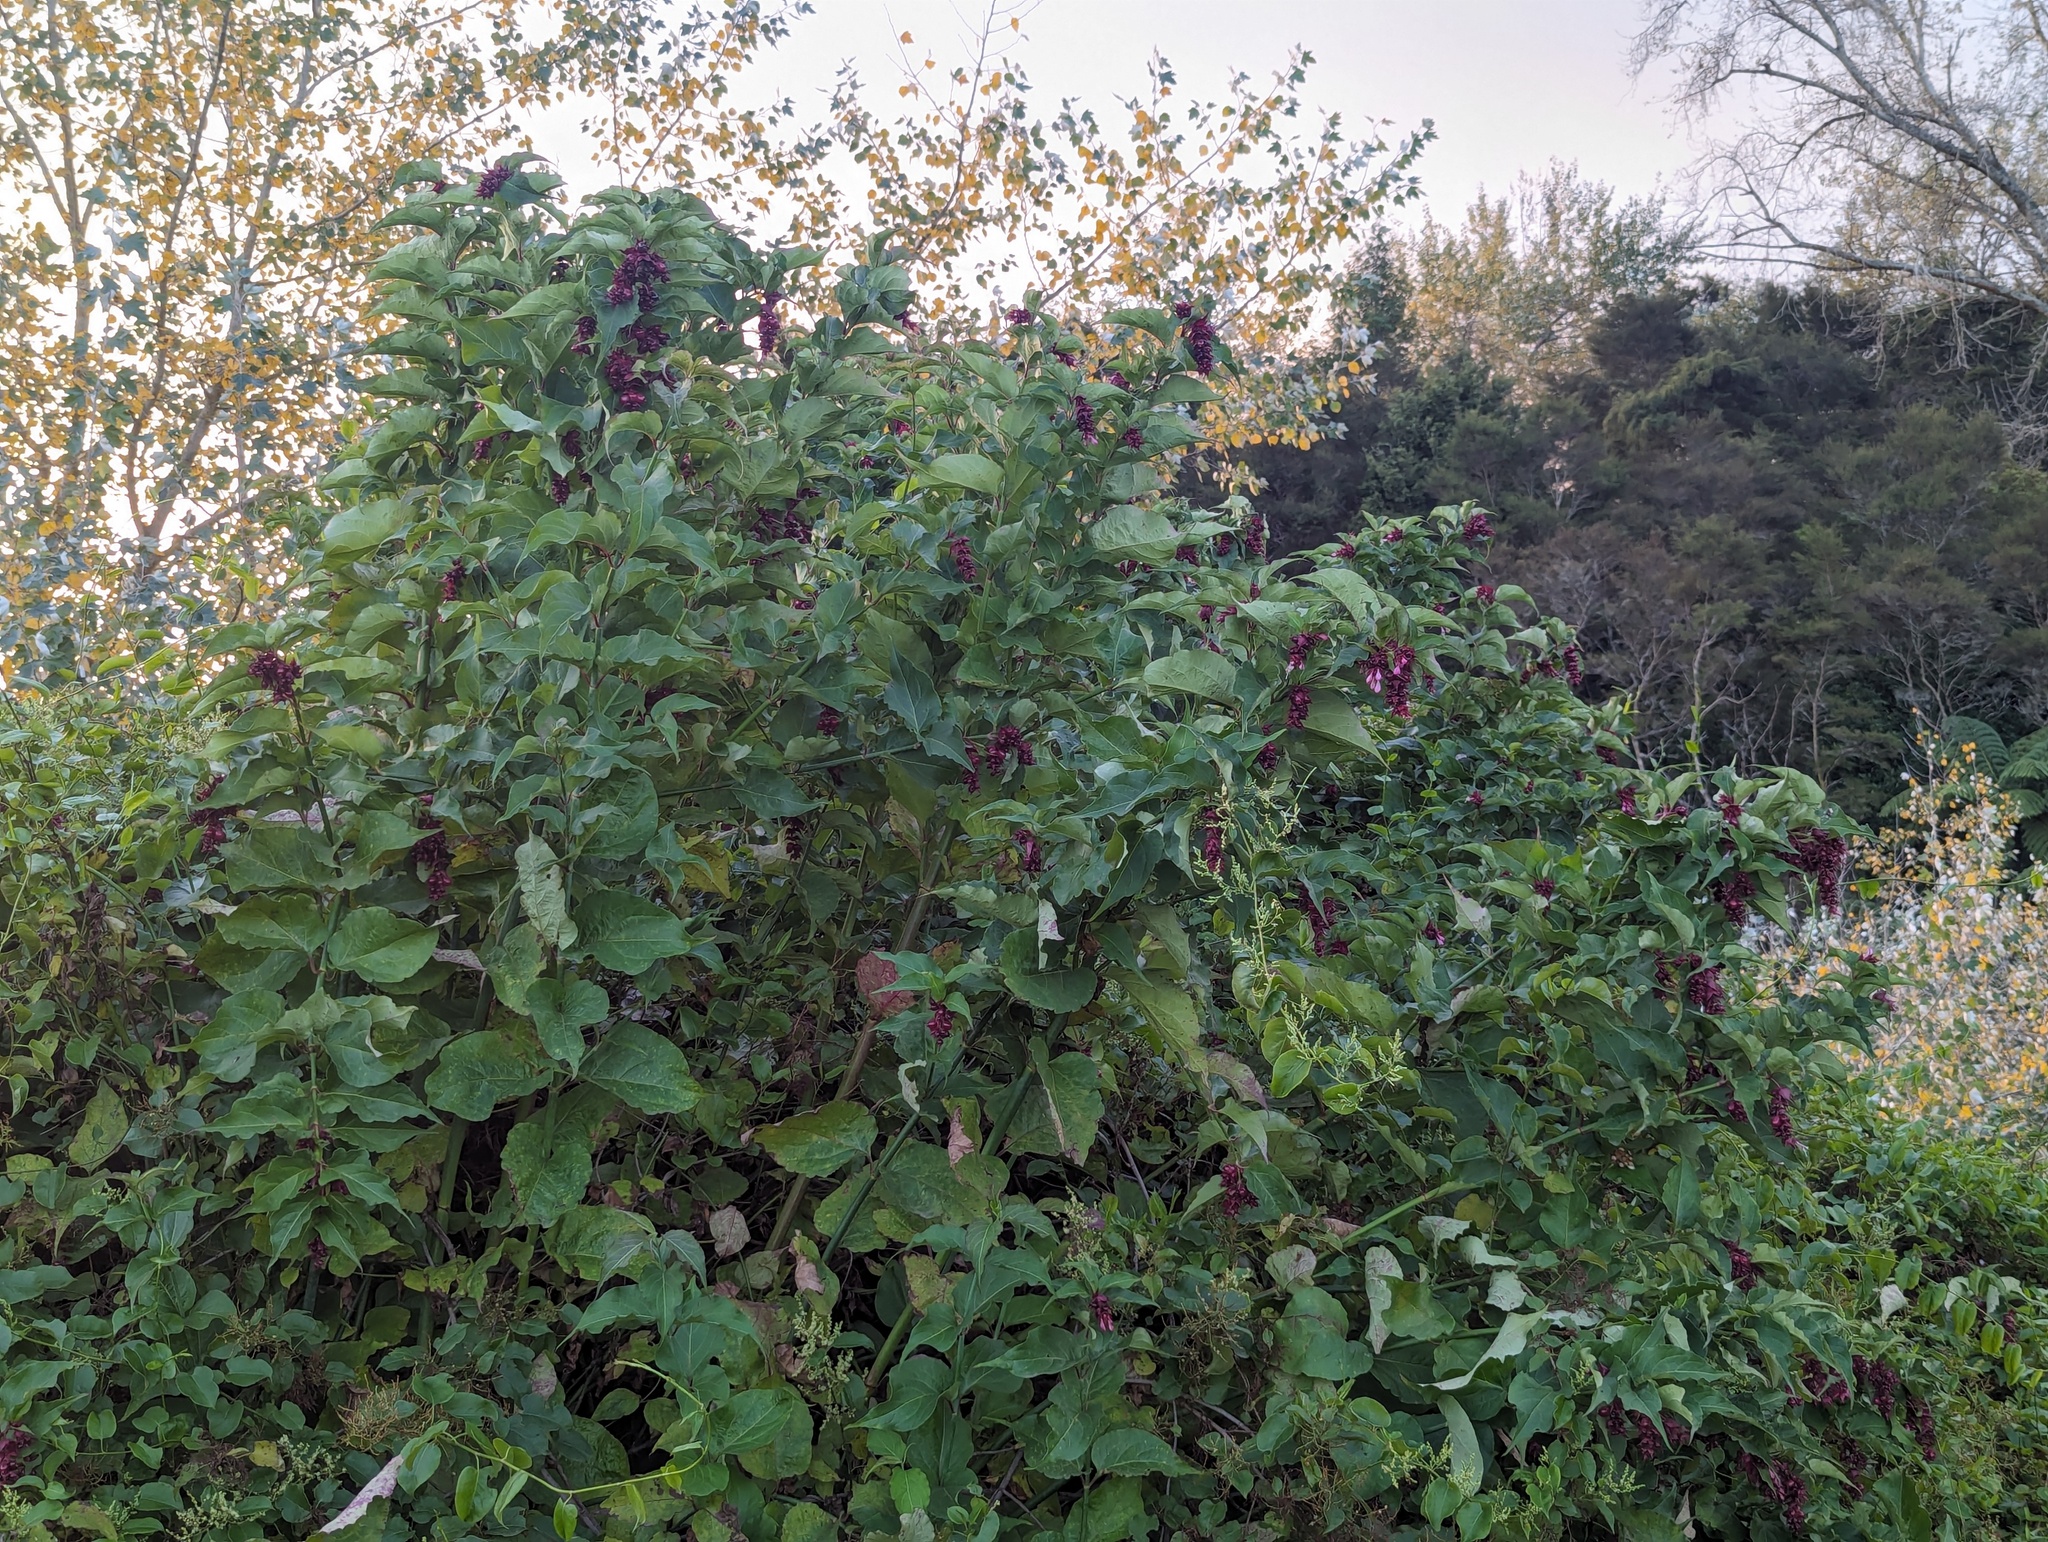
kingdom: Plantae
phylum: Tracheophyta
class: Magnoliopsida
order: Dipsacales
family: Caprifoliaceae
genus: Leycesteria
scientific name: Leycesteria formosa
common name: Himalayan honeysuckle
